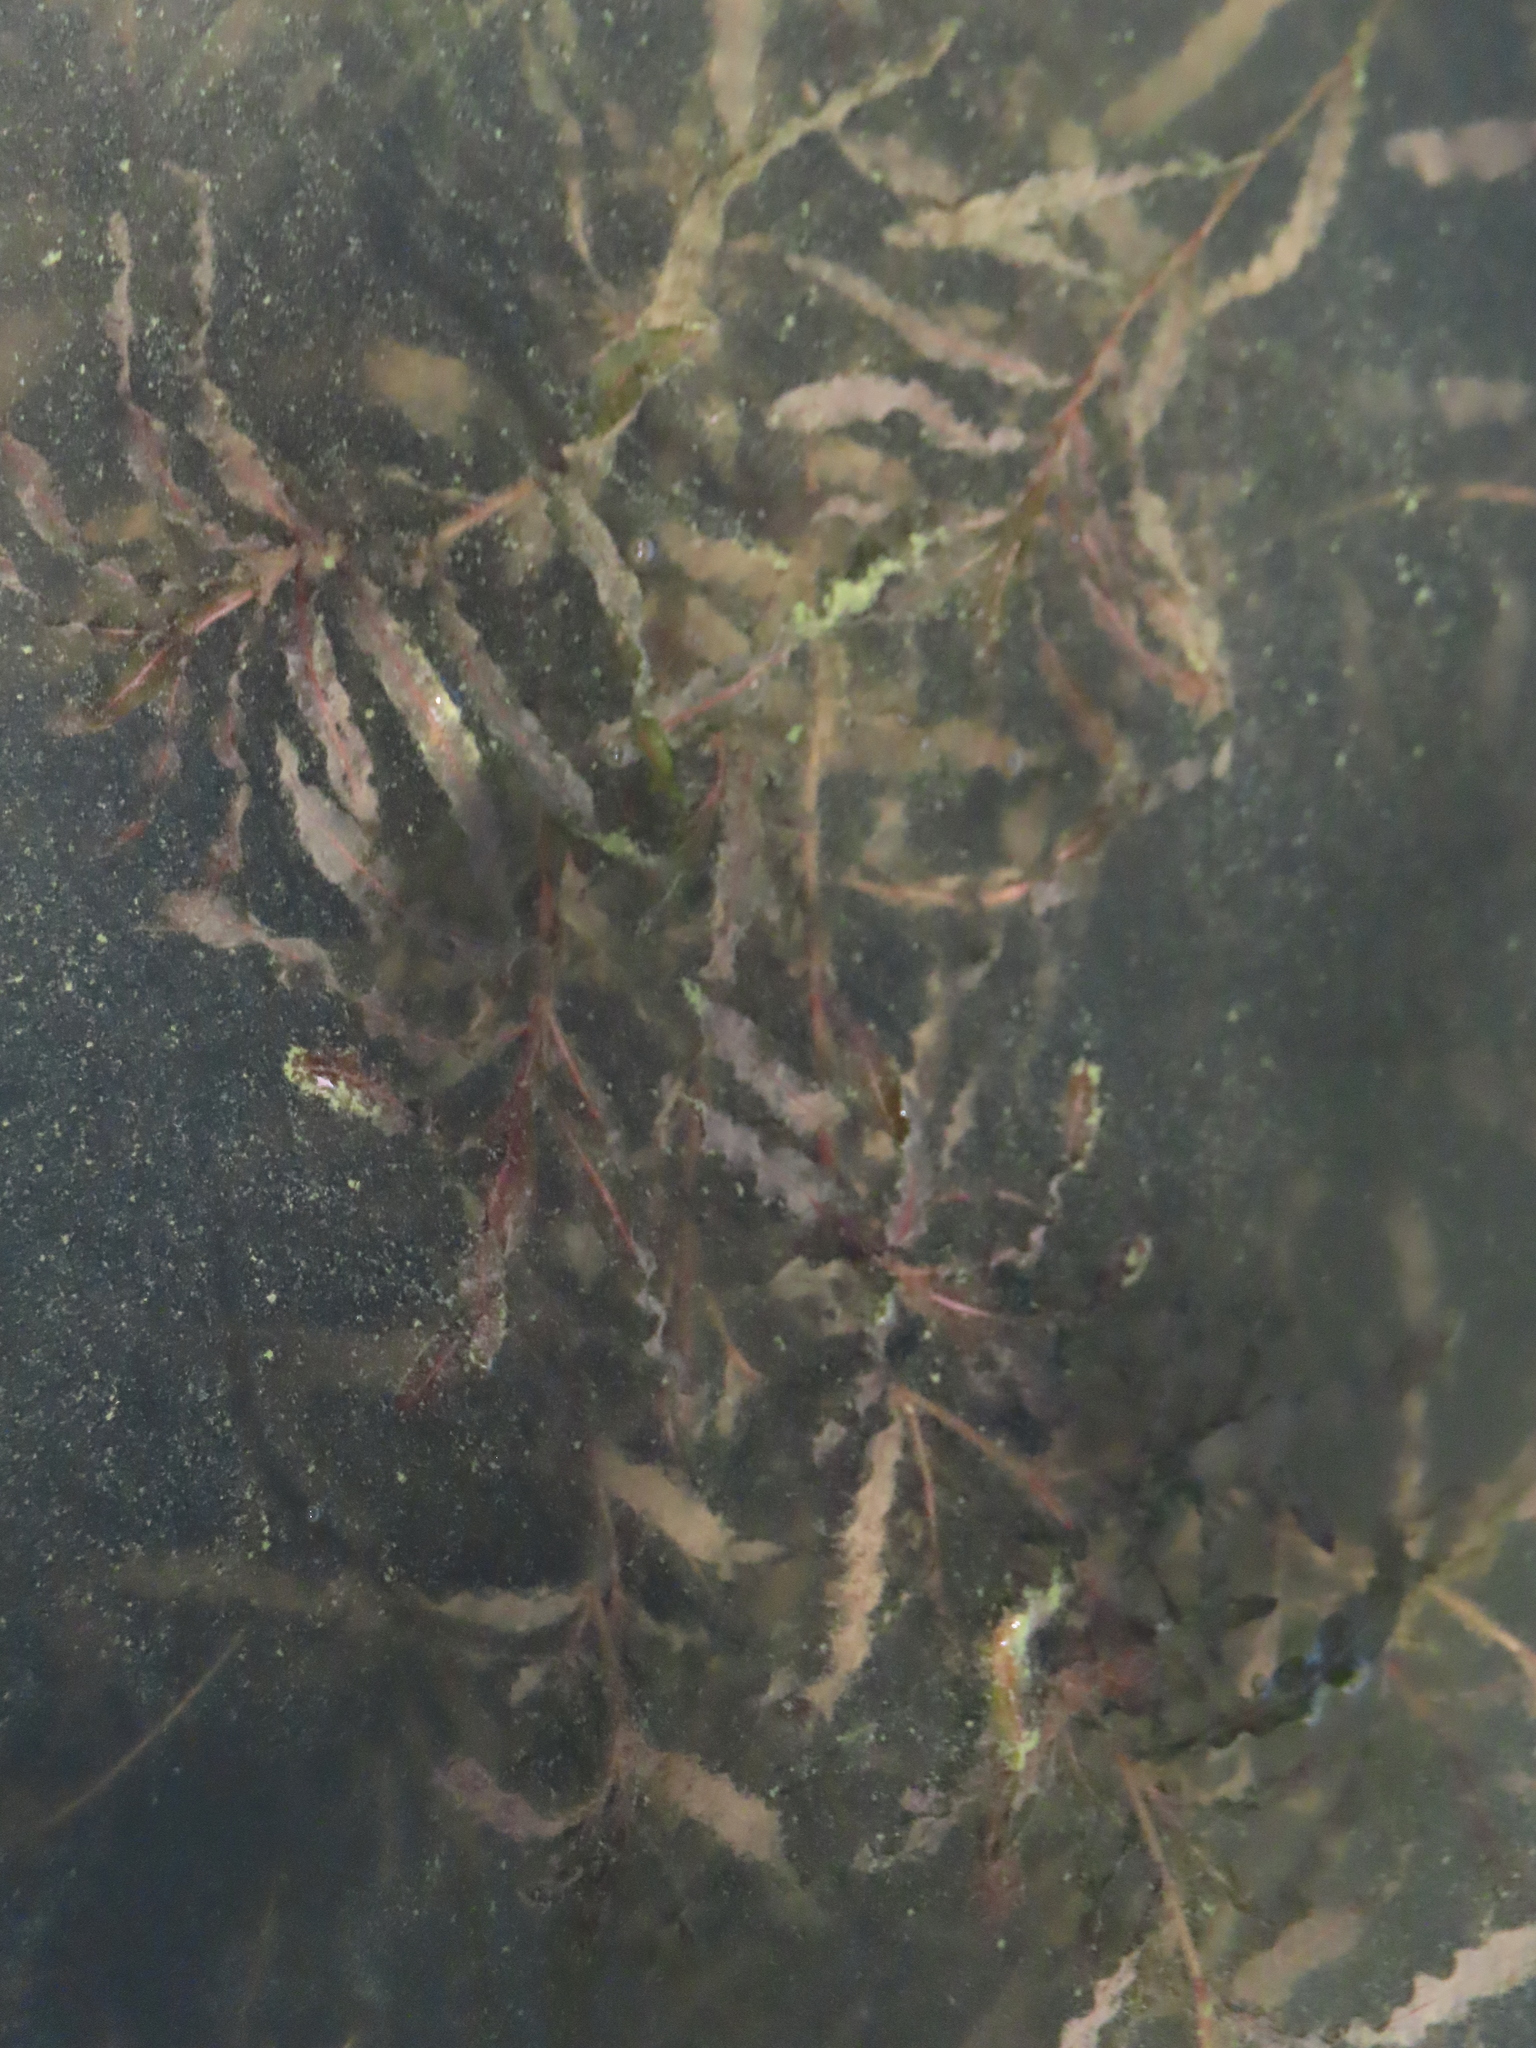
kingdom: Plantae
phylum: Tracheophyta
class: Liliopsida
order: Alismatales
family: Potamogetonaceae
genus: Potamogeton
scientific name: Potamogeton crispus
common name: Curled pondweed
